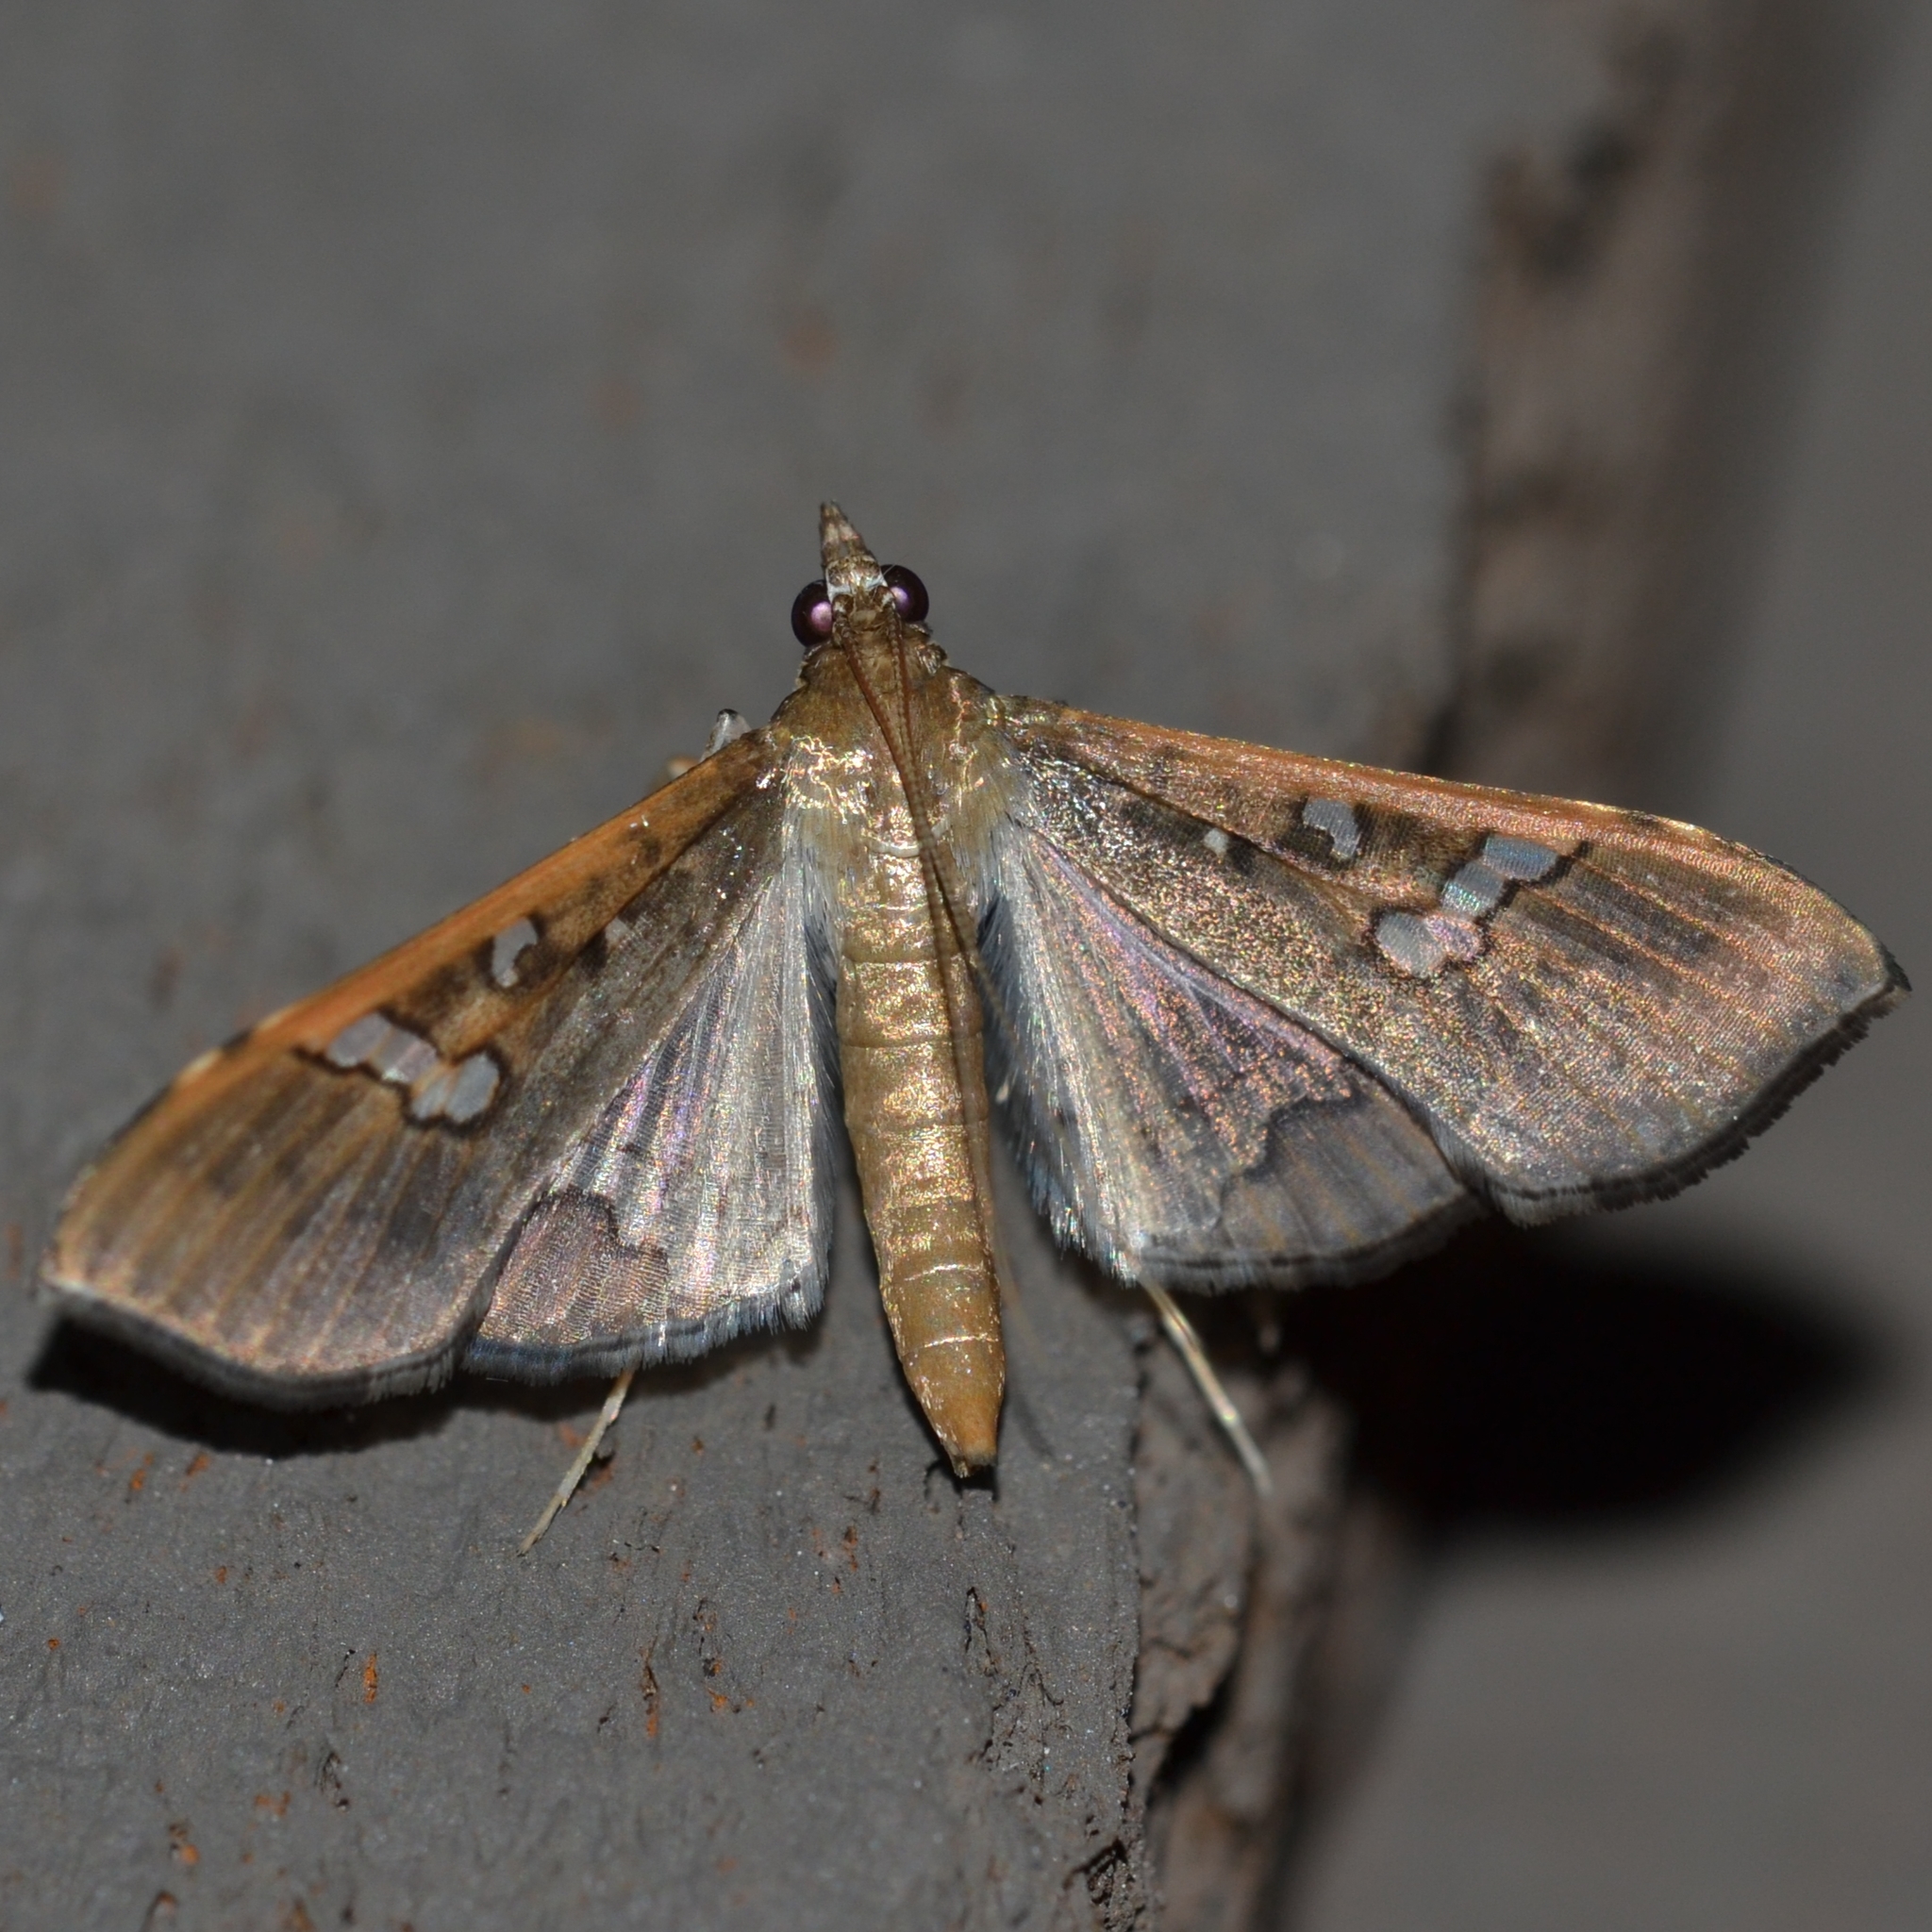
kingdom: Animalia
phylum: Arthropoda
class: Insecta
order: Lepidoptera
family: Crambidae
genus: Maruca
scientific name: Maruca vitrata
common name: Maruca pod borer
